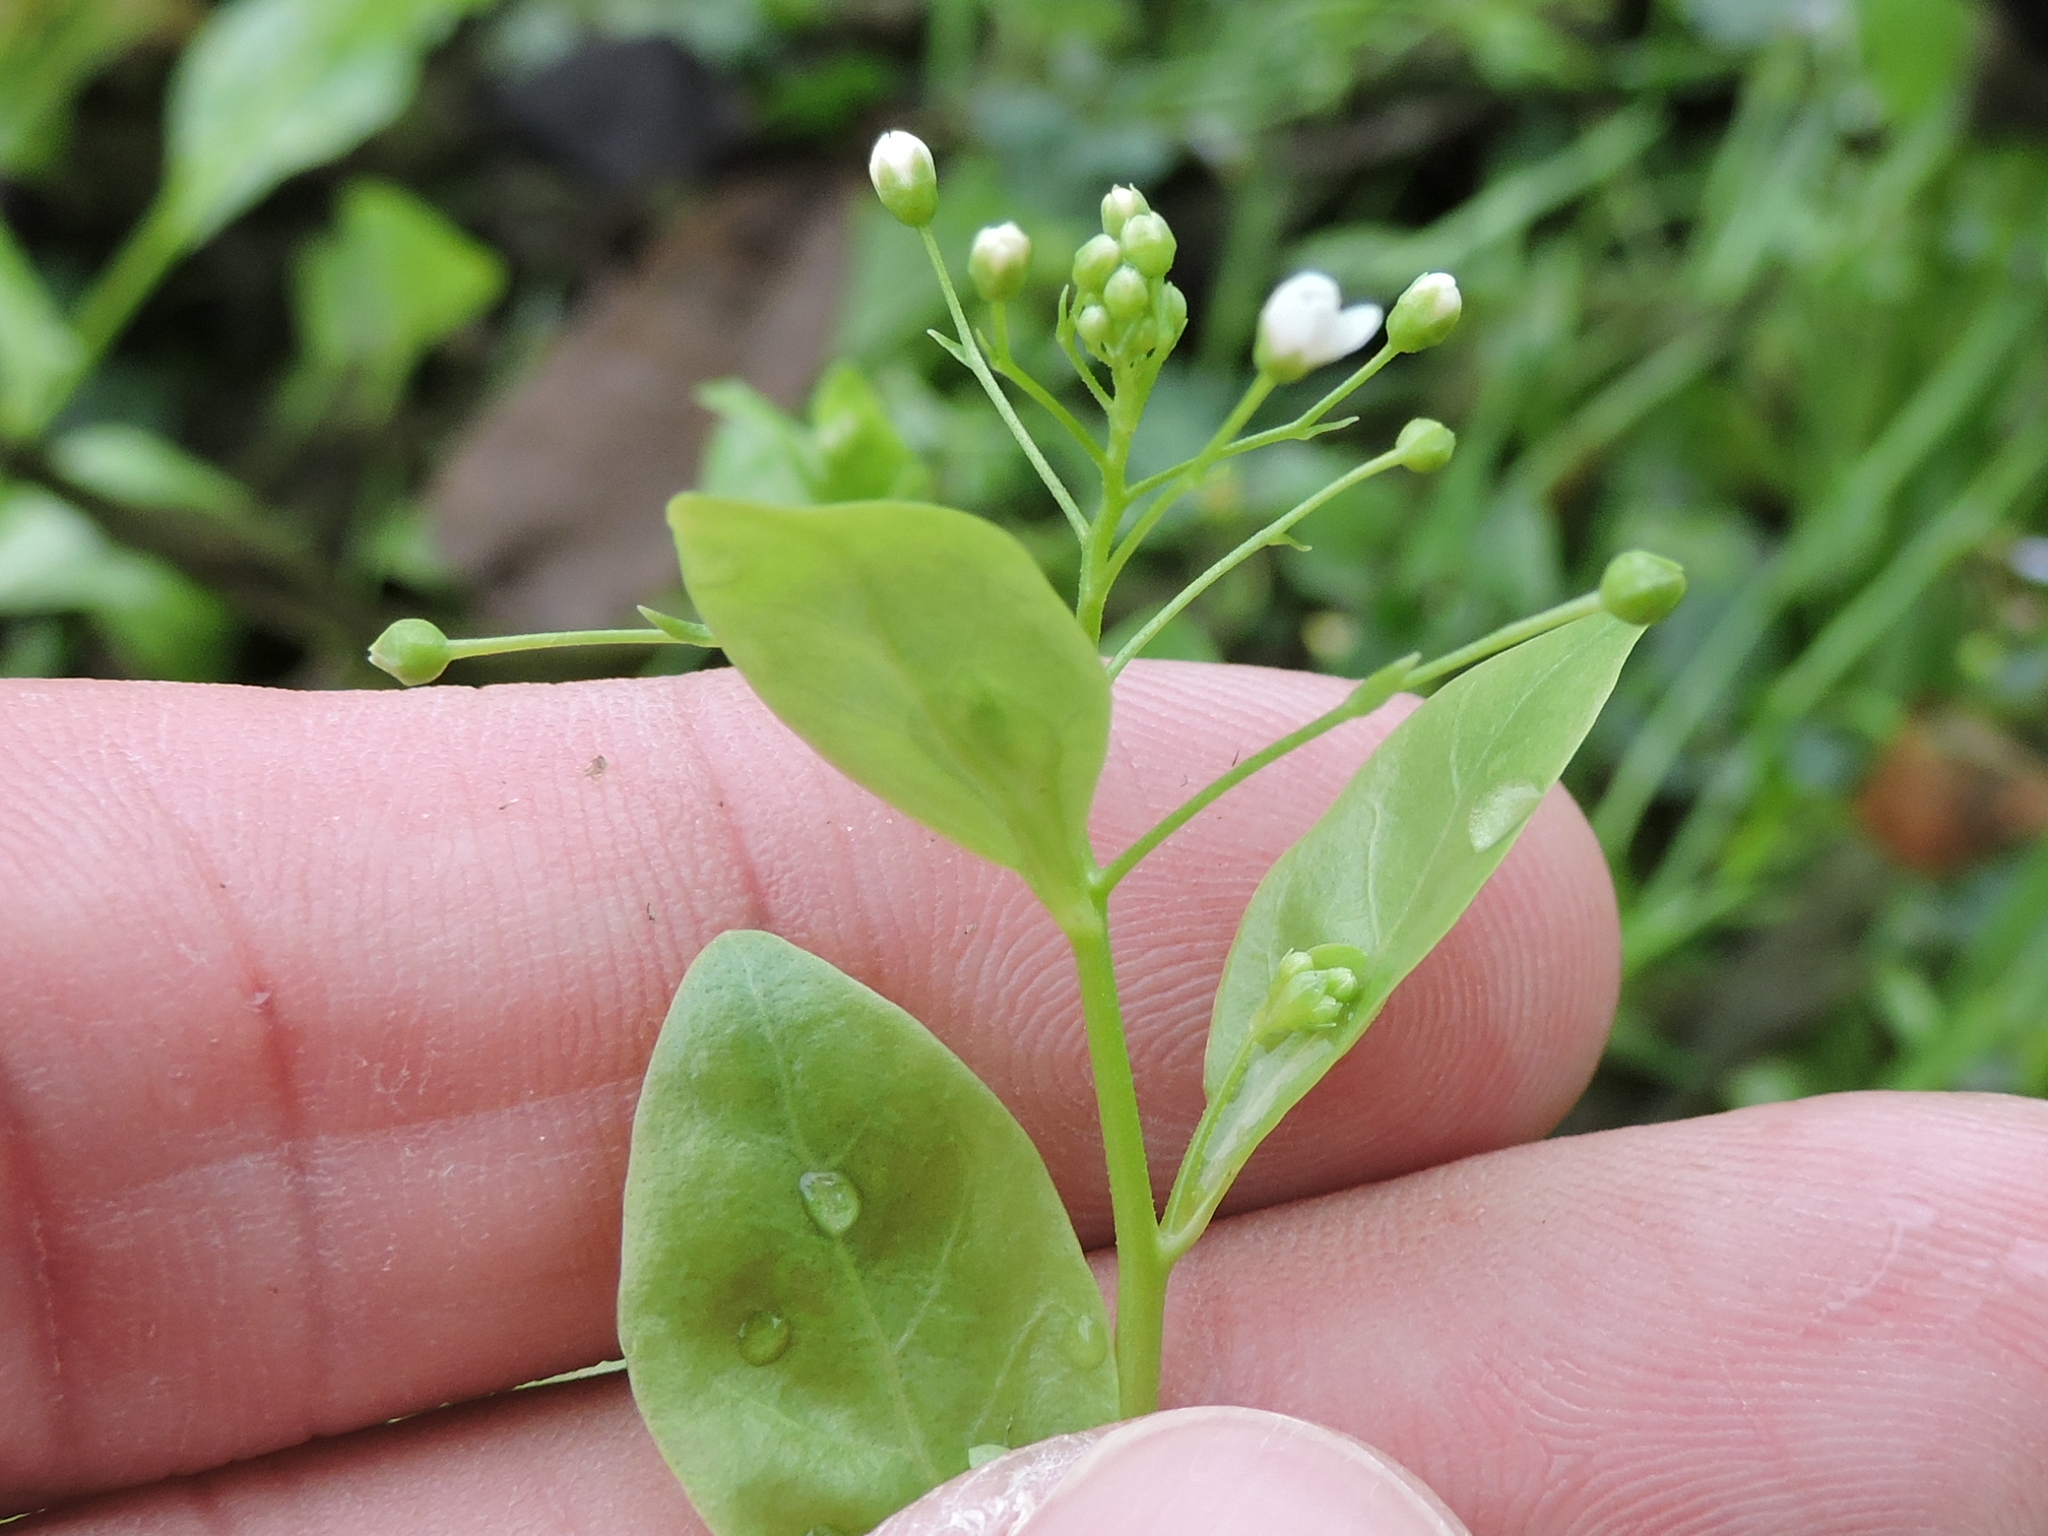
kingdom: Plantae
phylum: Tracheophyta
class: Magnoliopsida
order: Ericales
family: Primulaceae
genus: Samolus
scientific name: Samolus parviflorus
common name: False water pimpernel
